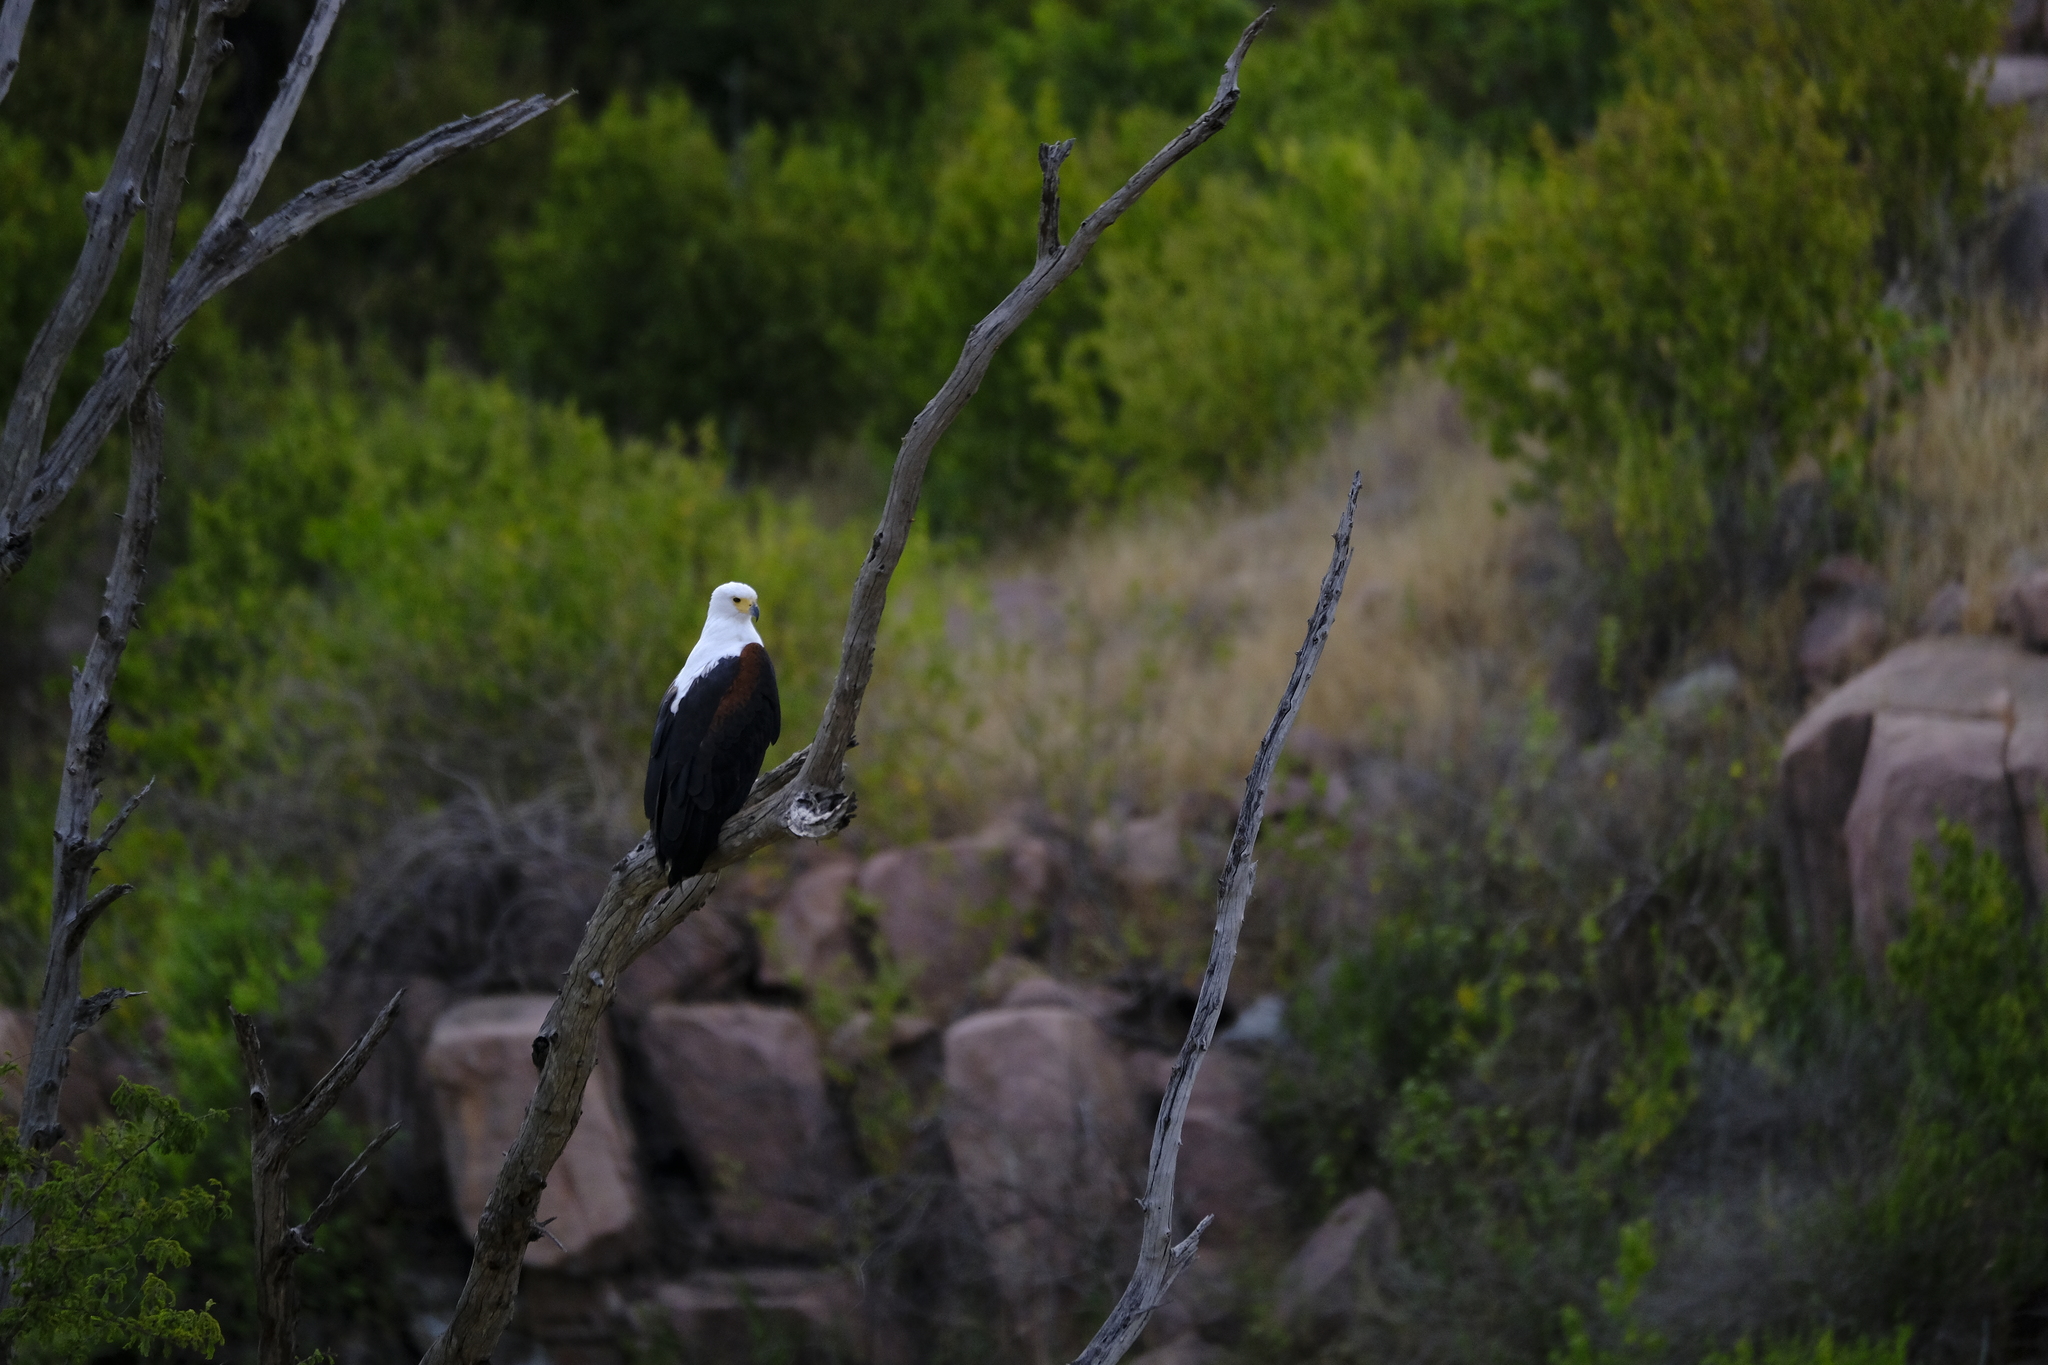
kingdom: Animalia
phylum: Chordata
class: Aves
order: Accipitriformes
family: Accipitridae
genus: Haliaeetus
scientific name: Haliaeetus vocifer
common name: African fish eagle
